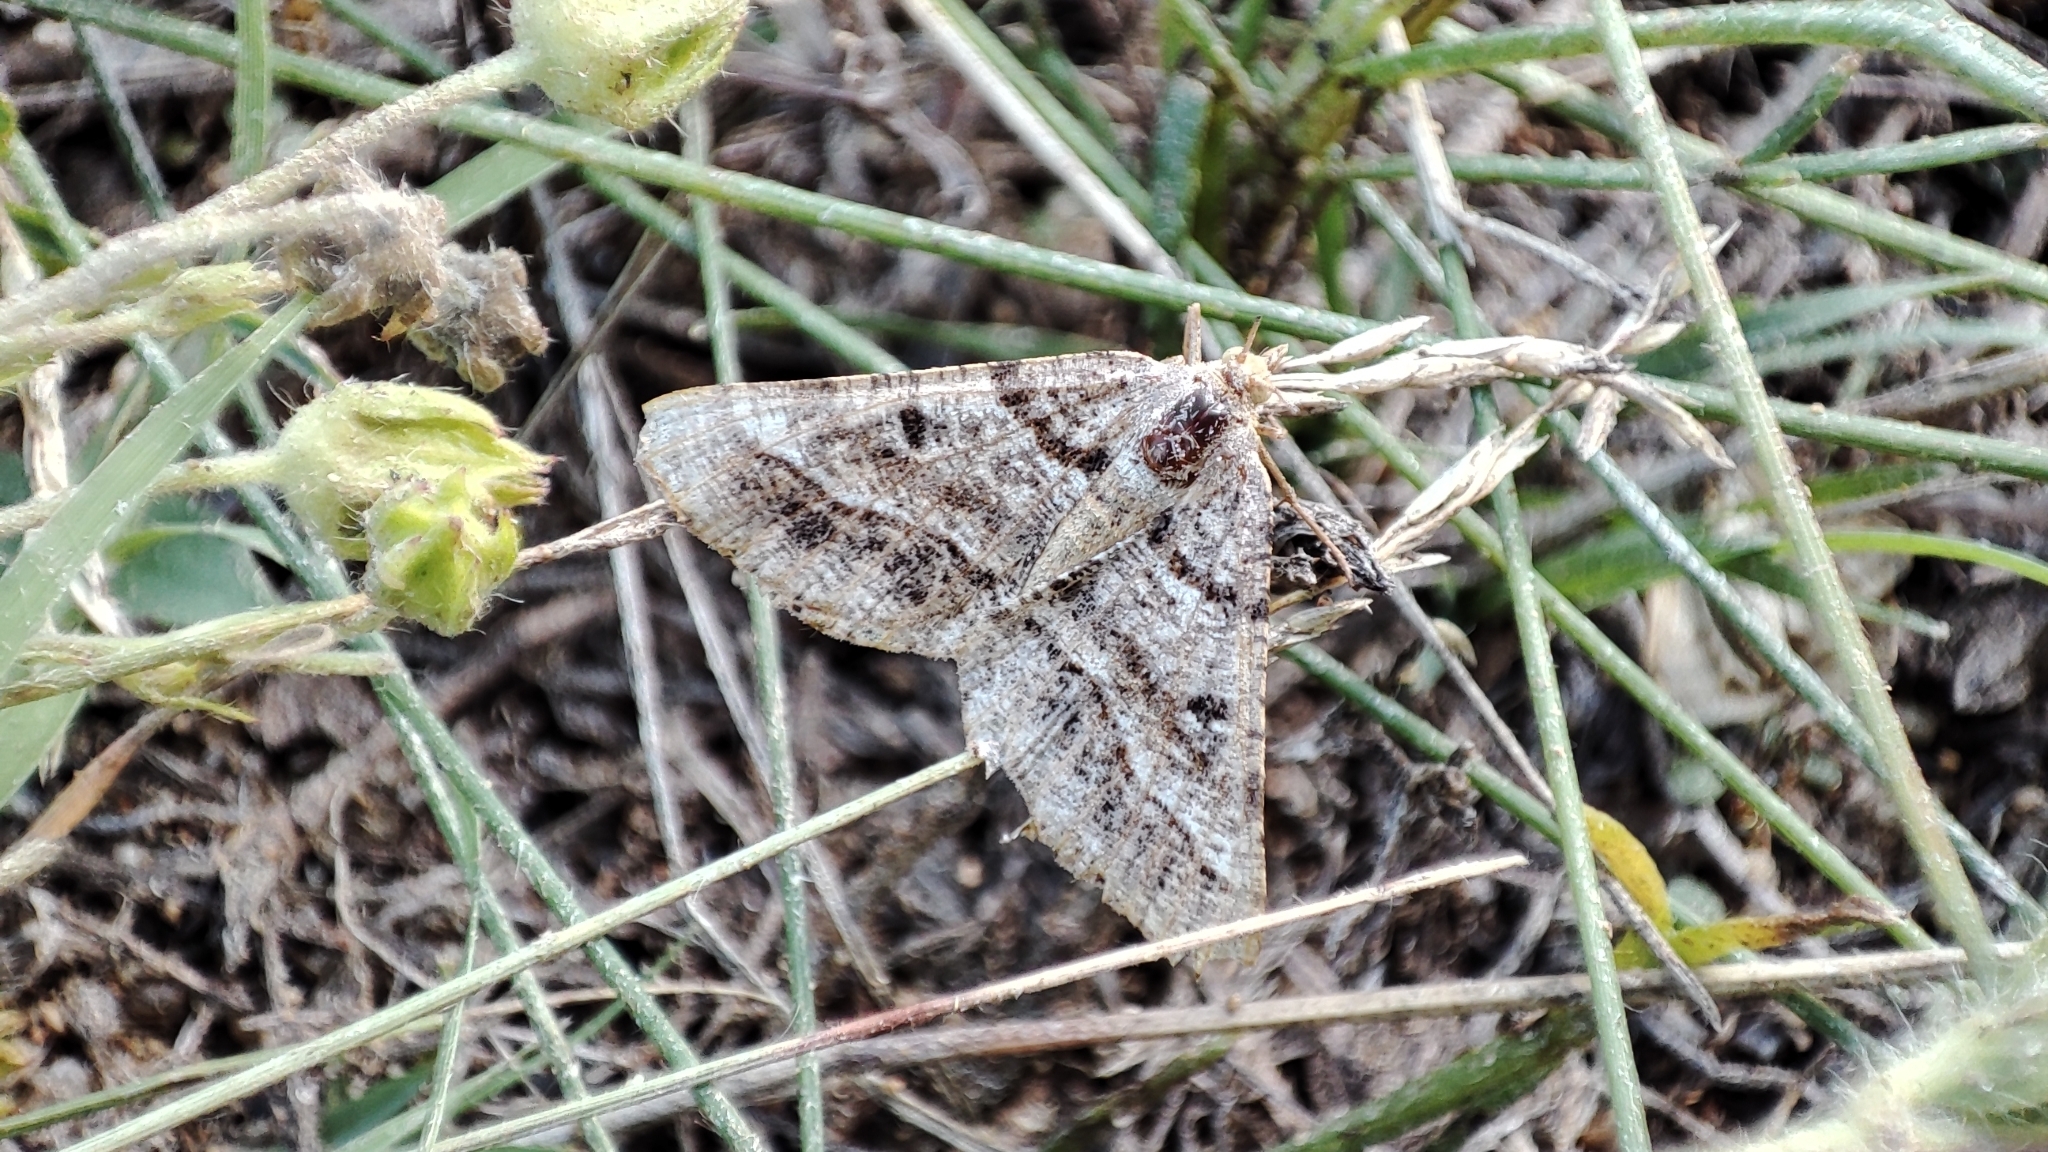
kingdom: Animalia
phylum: Arthropoda
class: Insecta
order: Lepidoptera
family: Geometridae
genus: Tephrina
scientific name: Tephrina murinaria
